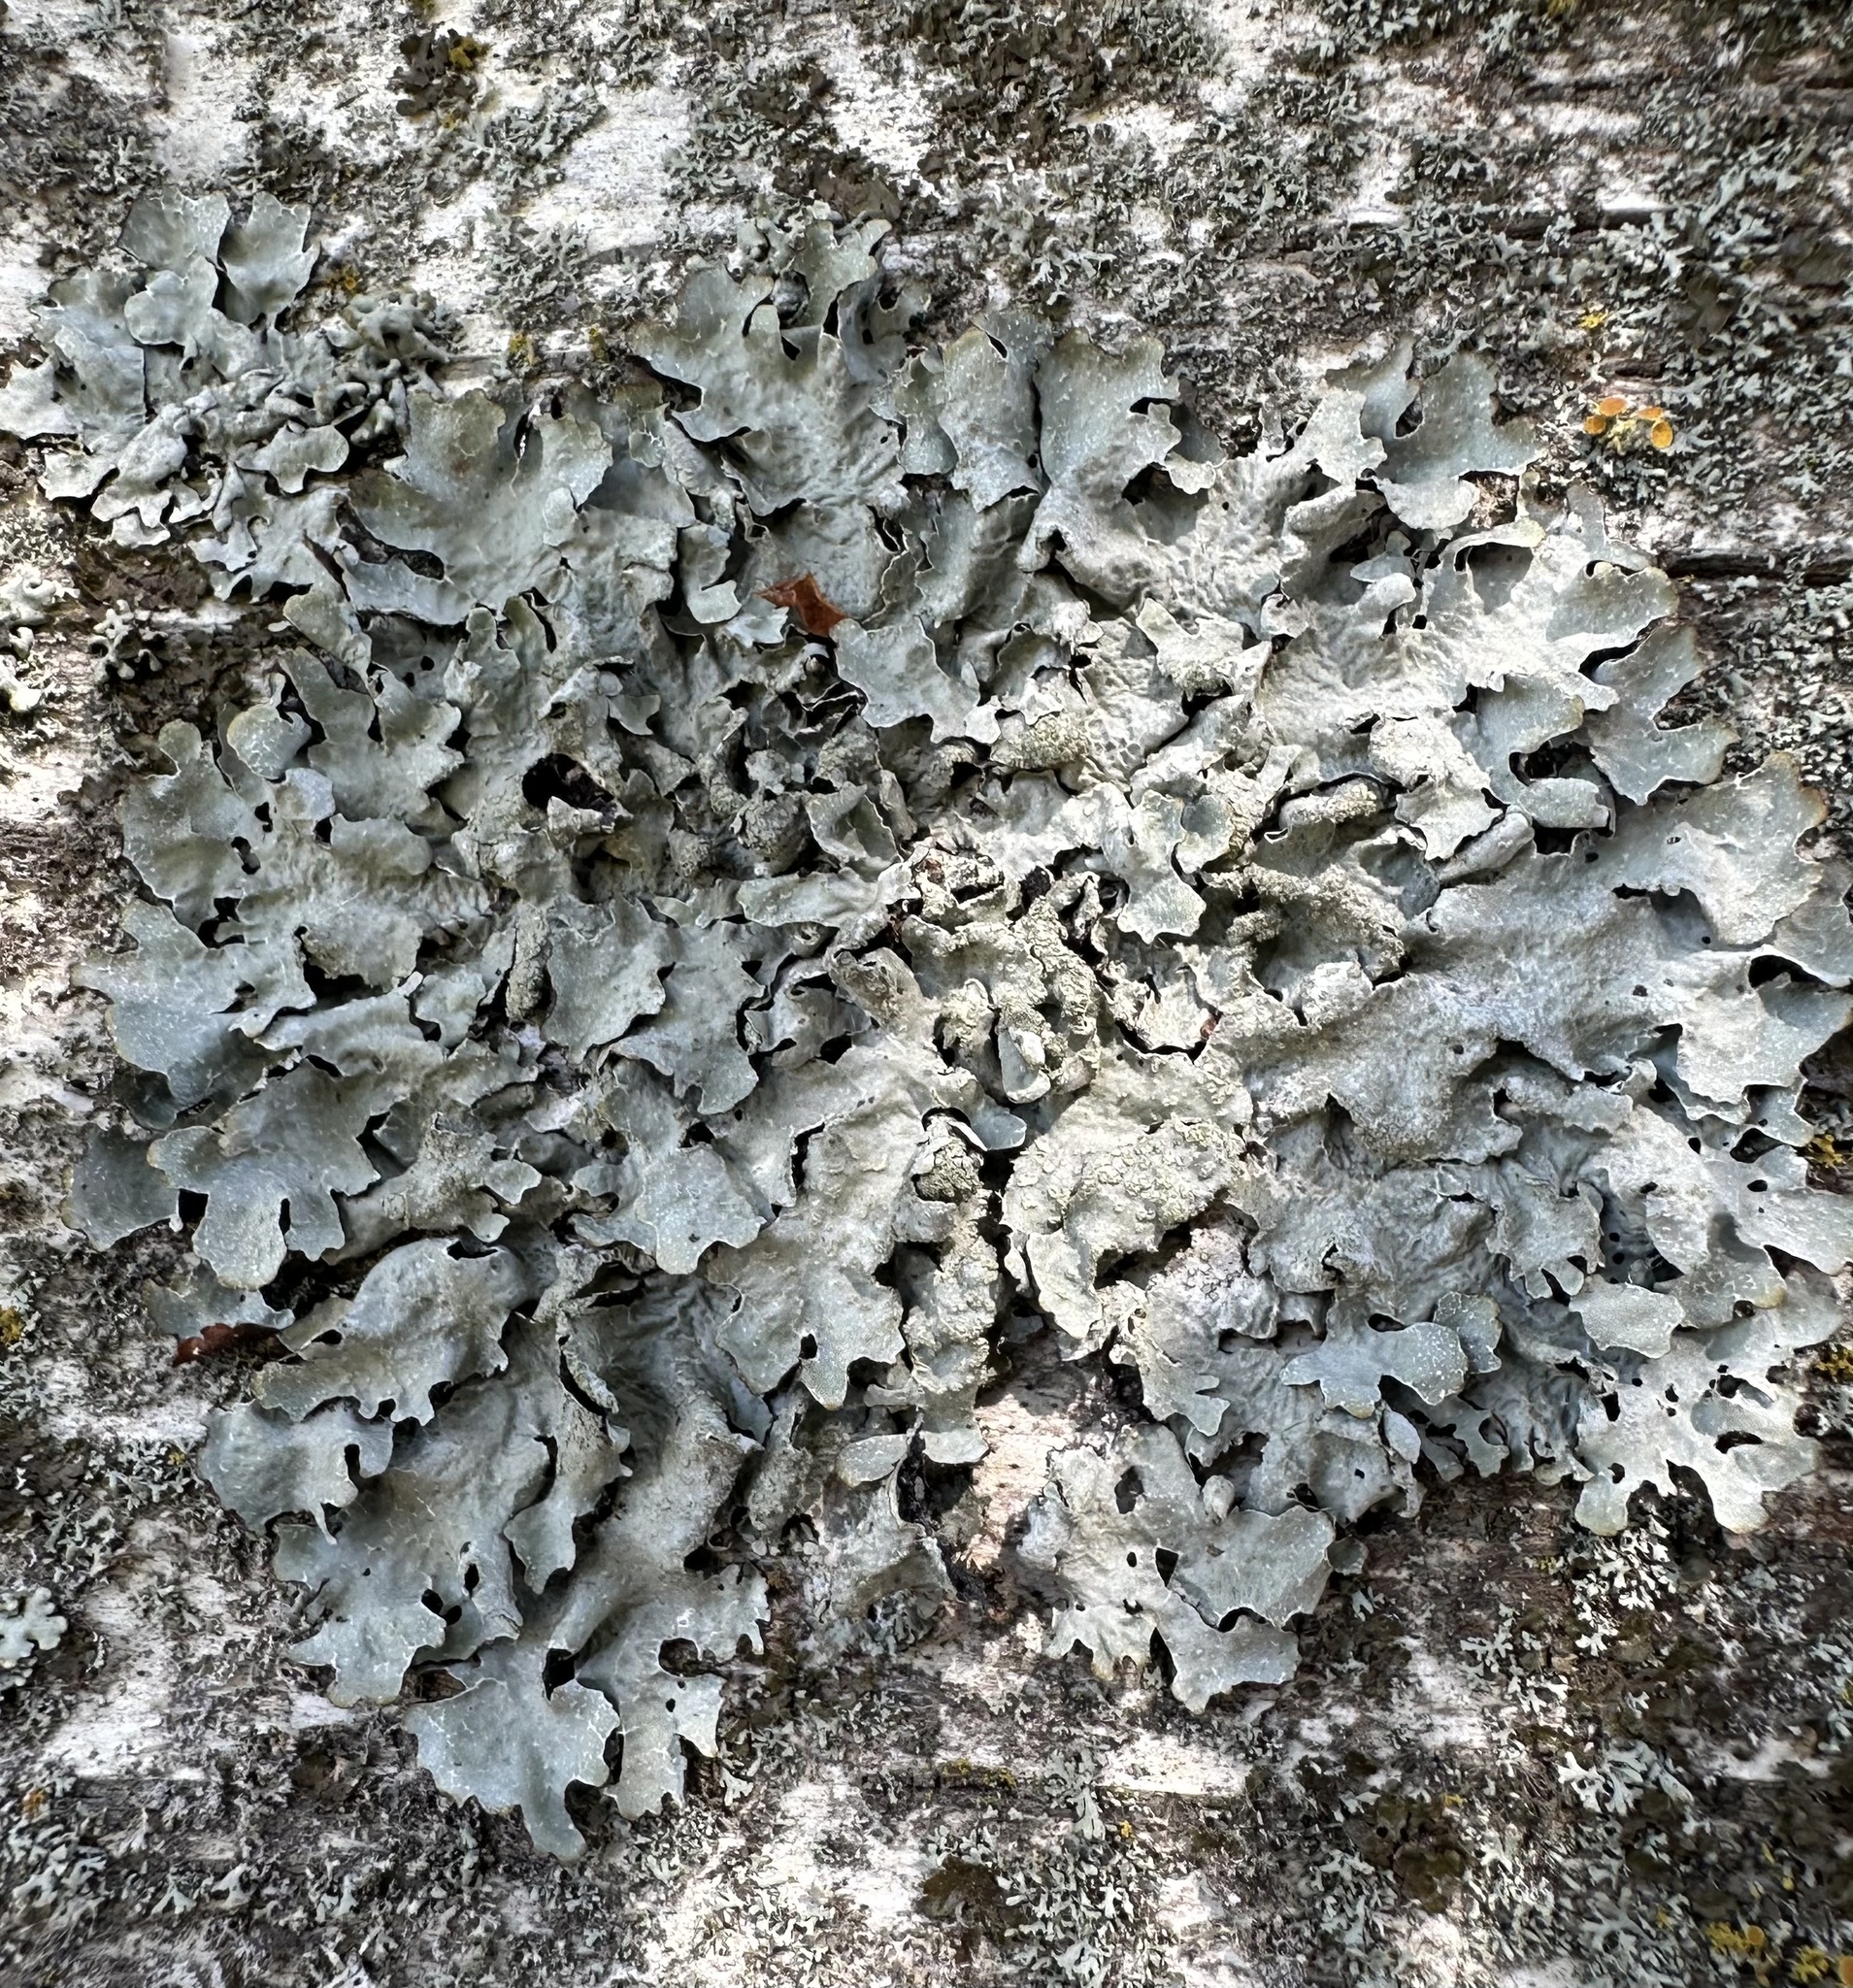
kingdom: Fungi
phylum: Ascomycota
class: Lecanoromycetes
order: Lecanorales
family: Parmeliaceae
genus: Parmelia
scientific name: Parmelia sulcata
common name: Netted shield lichen
